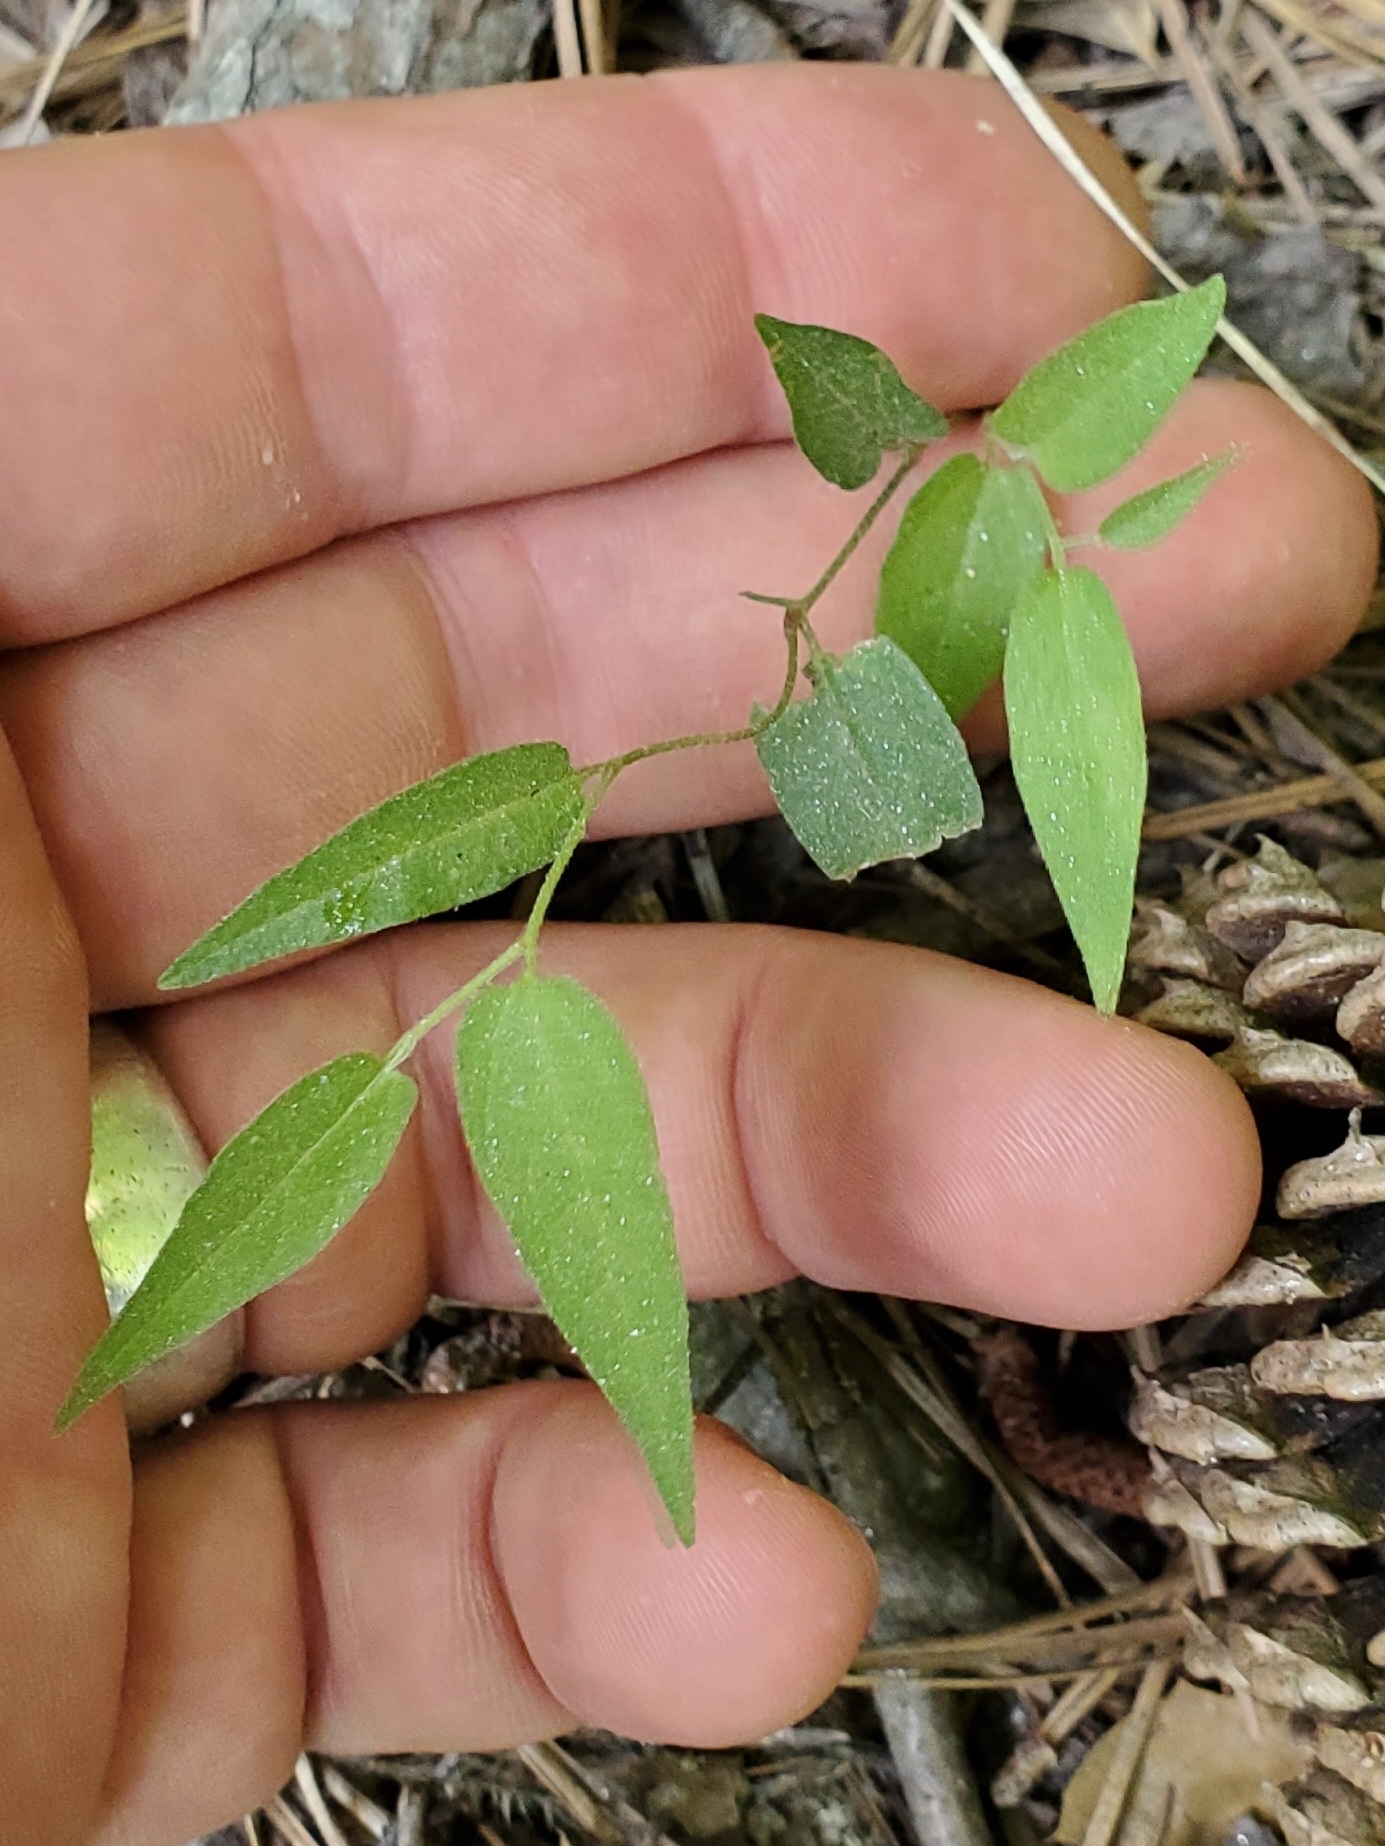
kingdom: Plantae
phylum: Tracheophyta
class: Magnoliopsida
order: Piperales
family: Aristolochiaceae
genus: Endodeca
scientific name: Endodeca serpentaria
